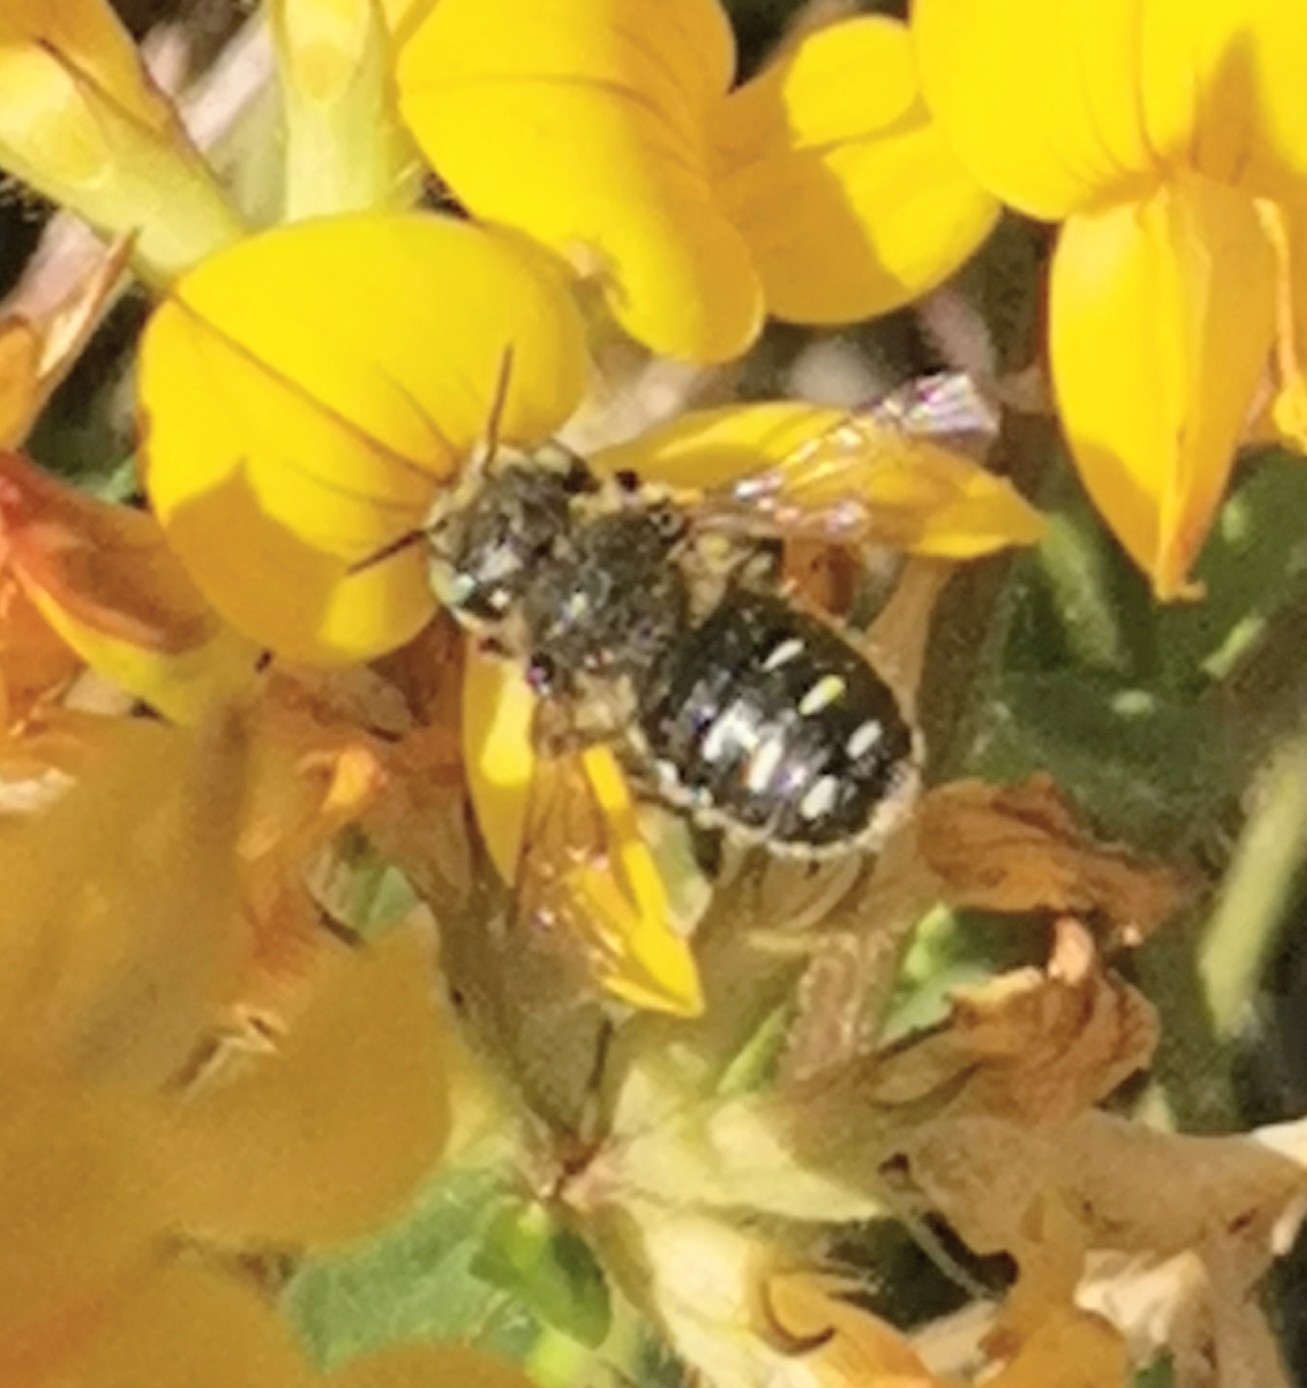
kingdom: Animalia
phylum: Arthropoda
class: Insecta
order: Hymenoptera
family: Megachilidae
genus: Anthidium
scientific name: Anthidium punctatum
